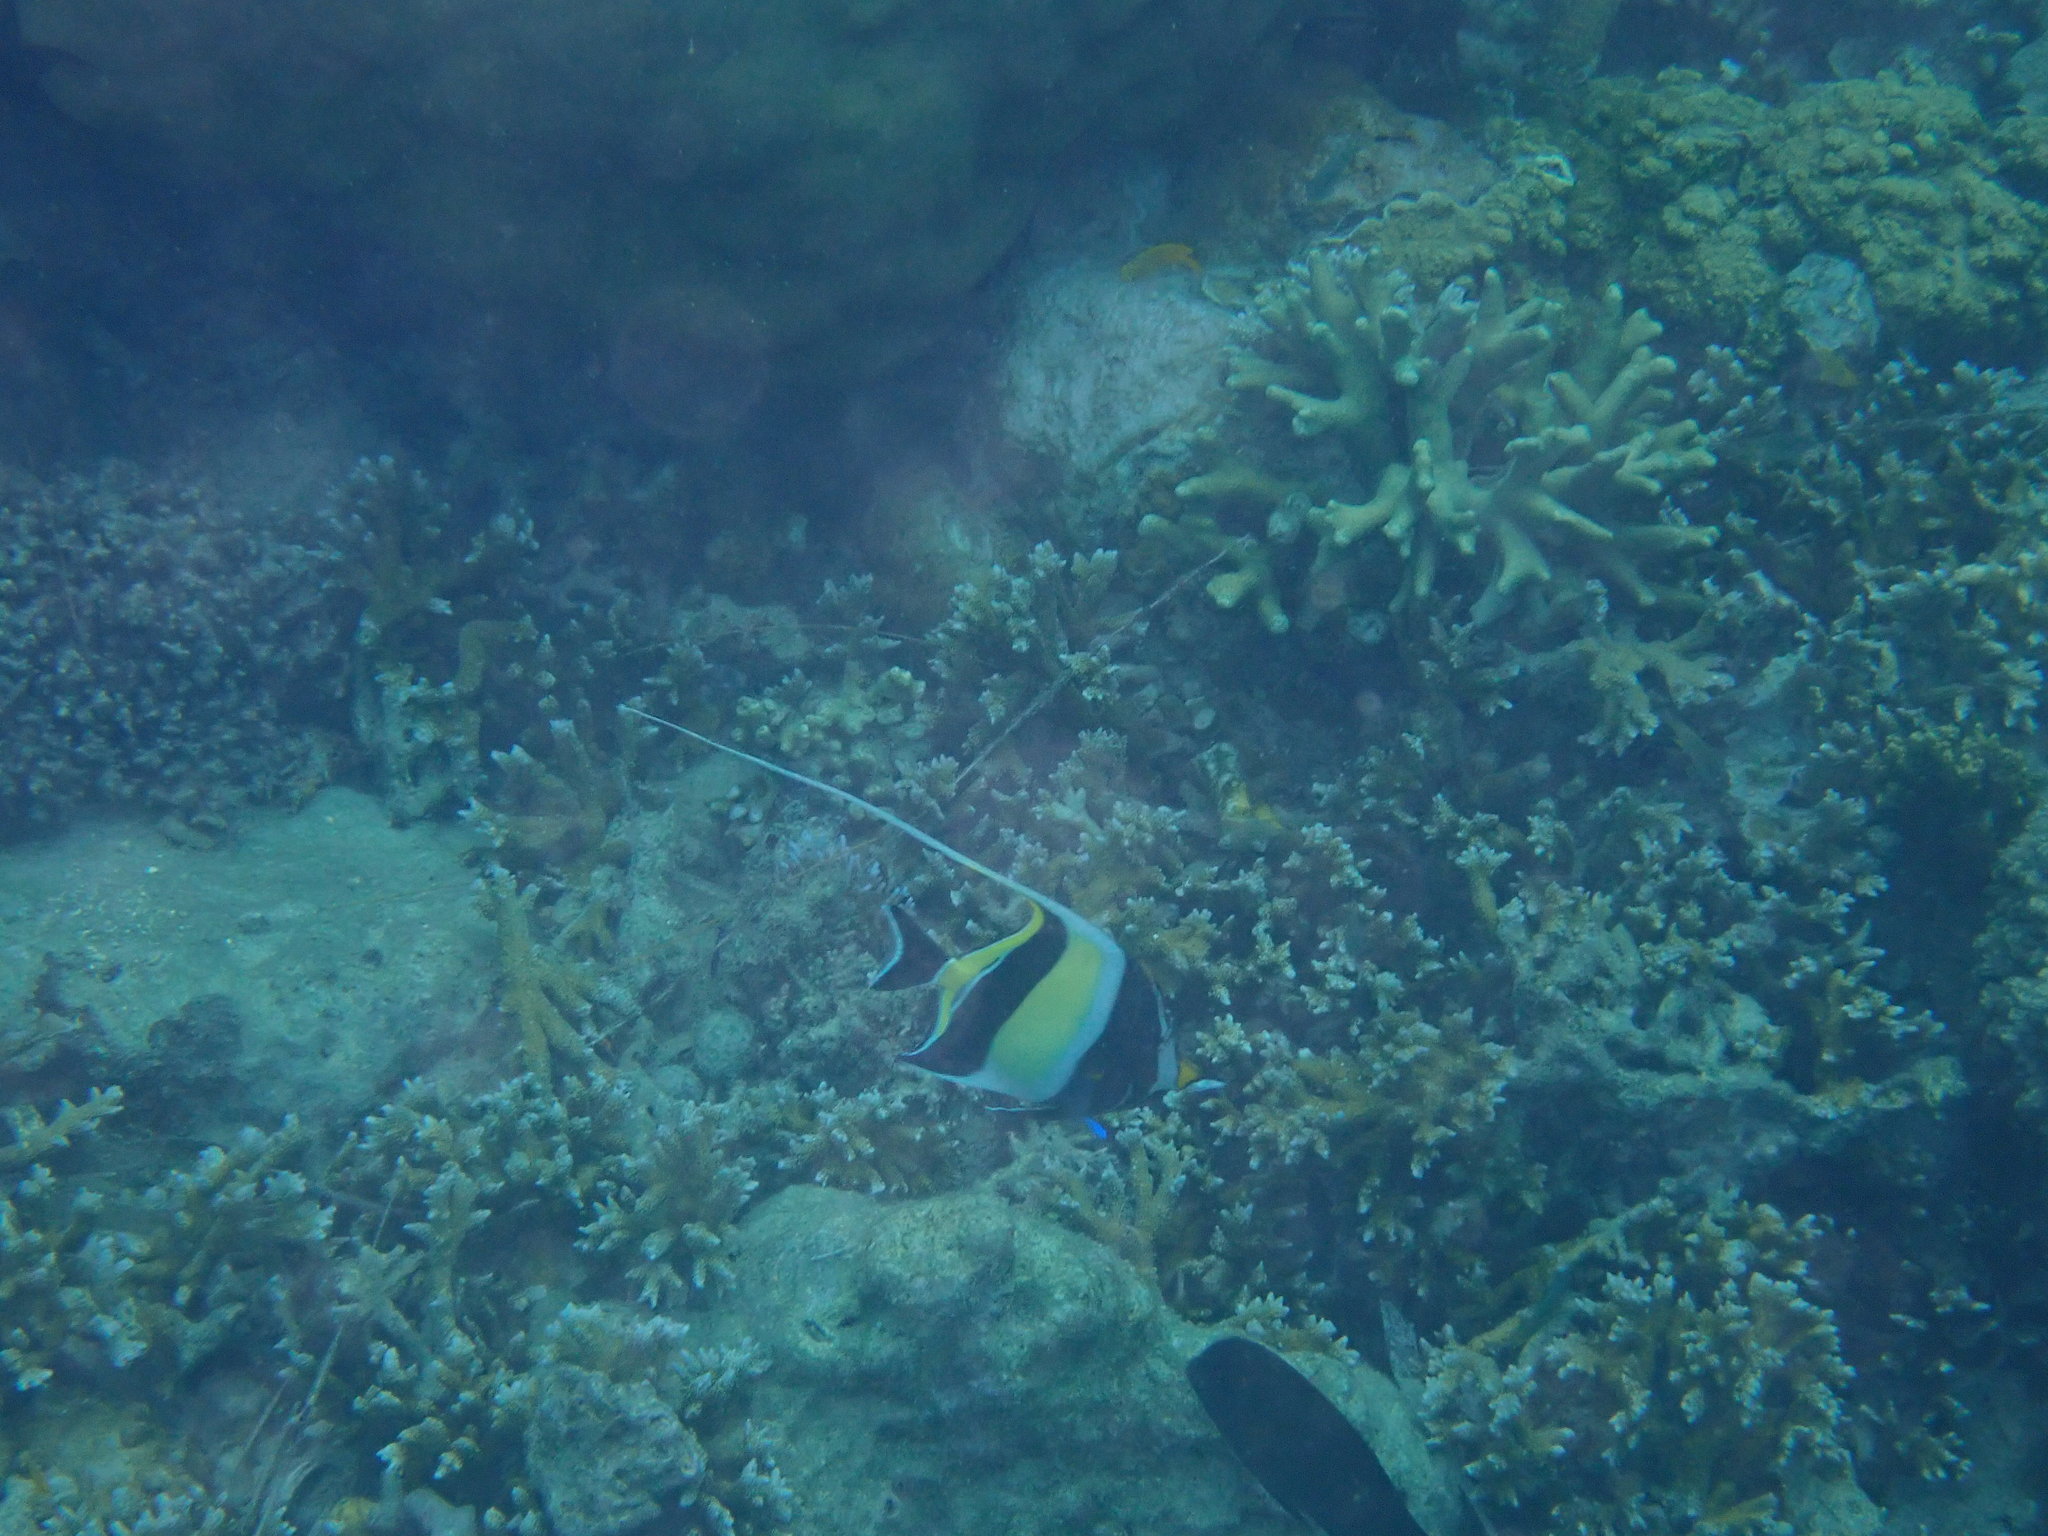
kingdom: Animalia
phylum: Chordata
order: Perciformes
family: Zanclidae
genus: Zanclus
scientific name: Zanclus cornutus
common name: Moorish idol
